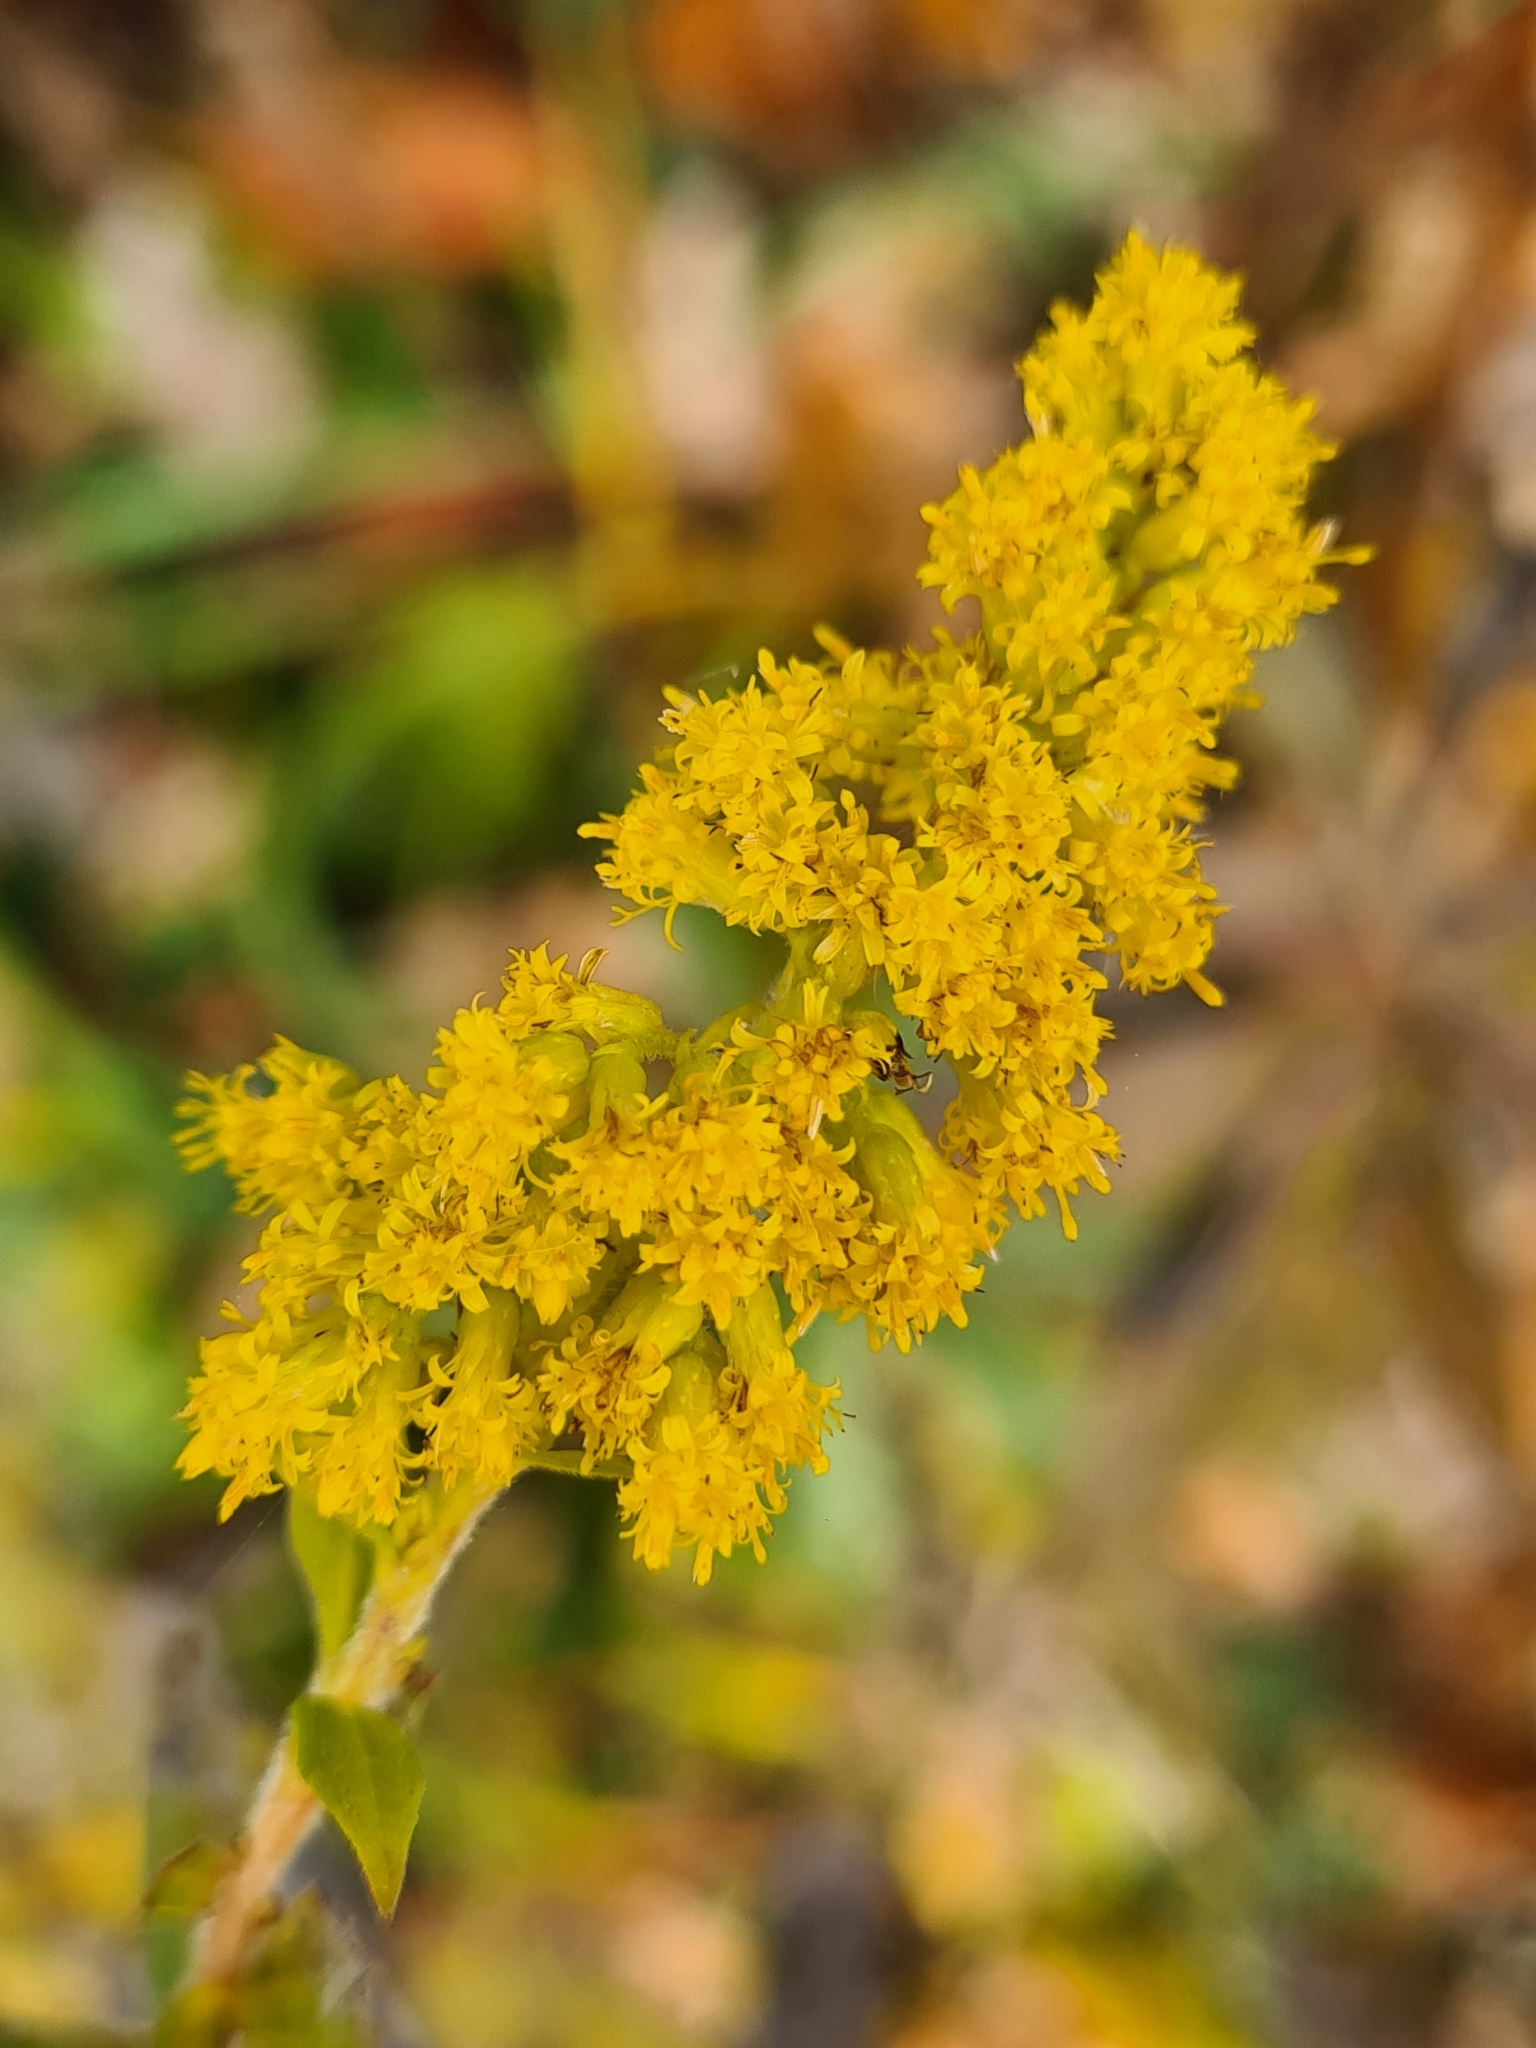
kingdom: Plantae
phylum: Tracheophyta
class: Magnoliopsida
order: Asterales
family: Asteraceae
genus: Solidago
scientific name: Solidago canadensis
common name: Canada goldenrod
